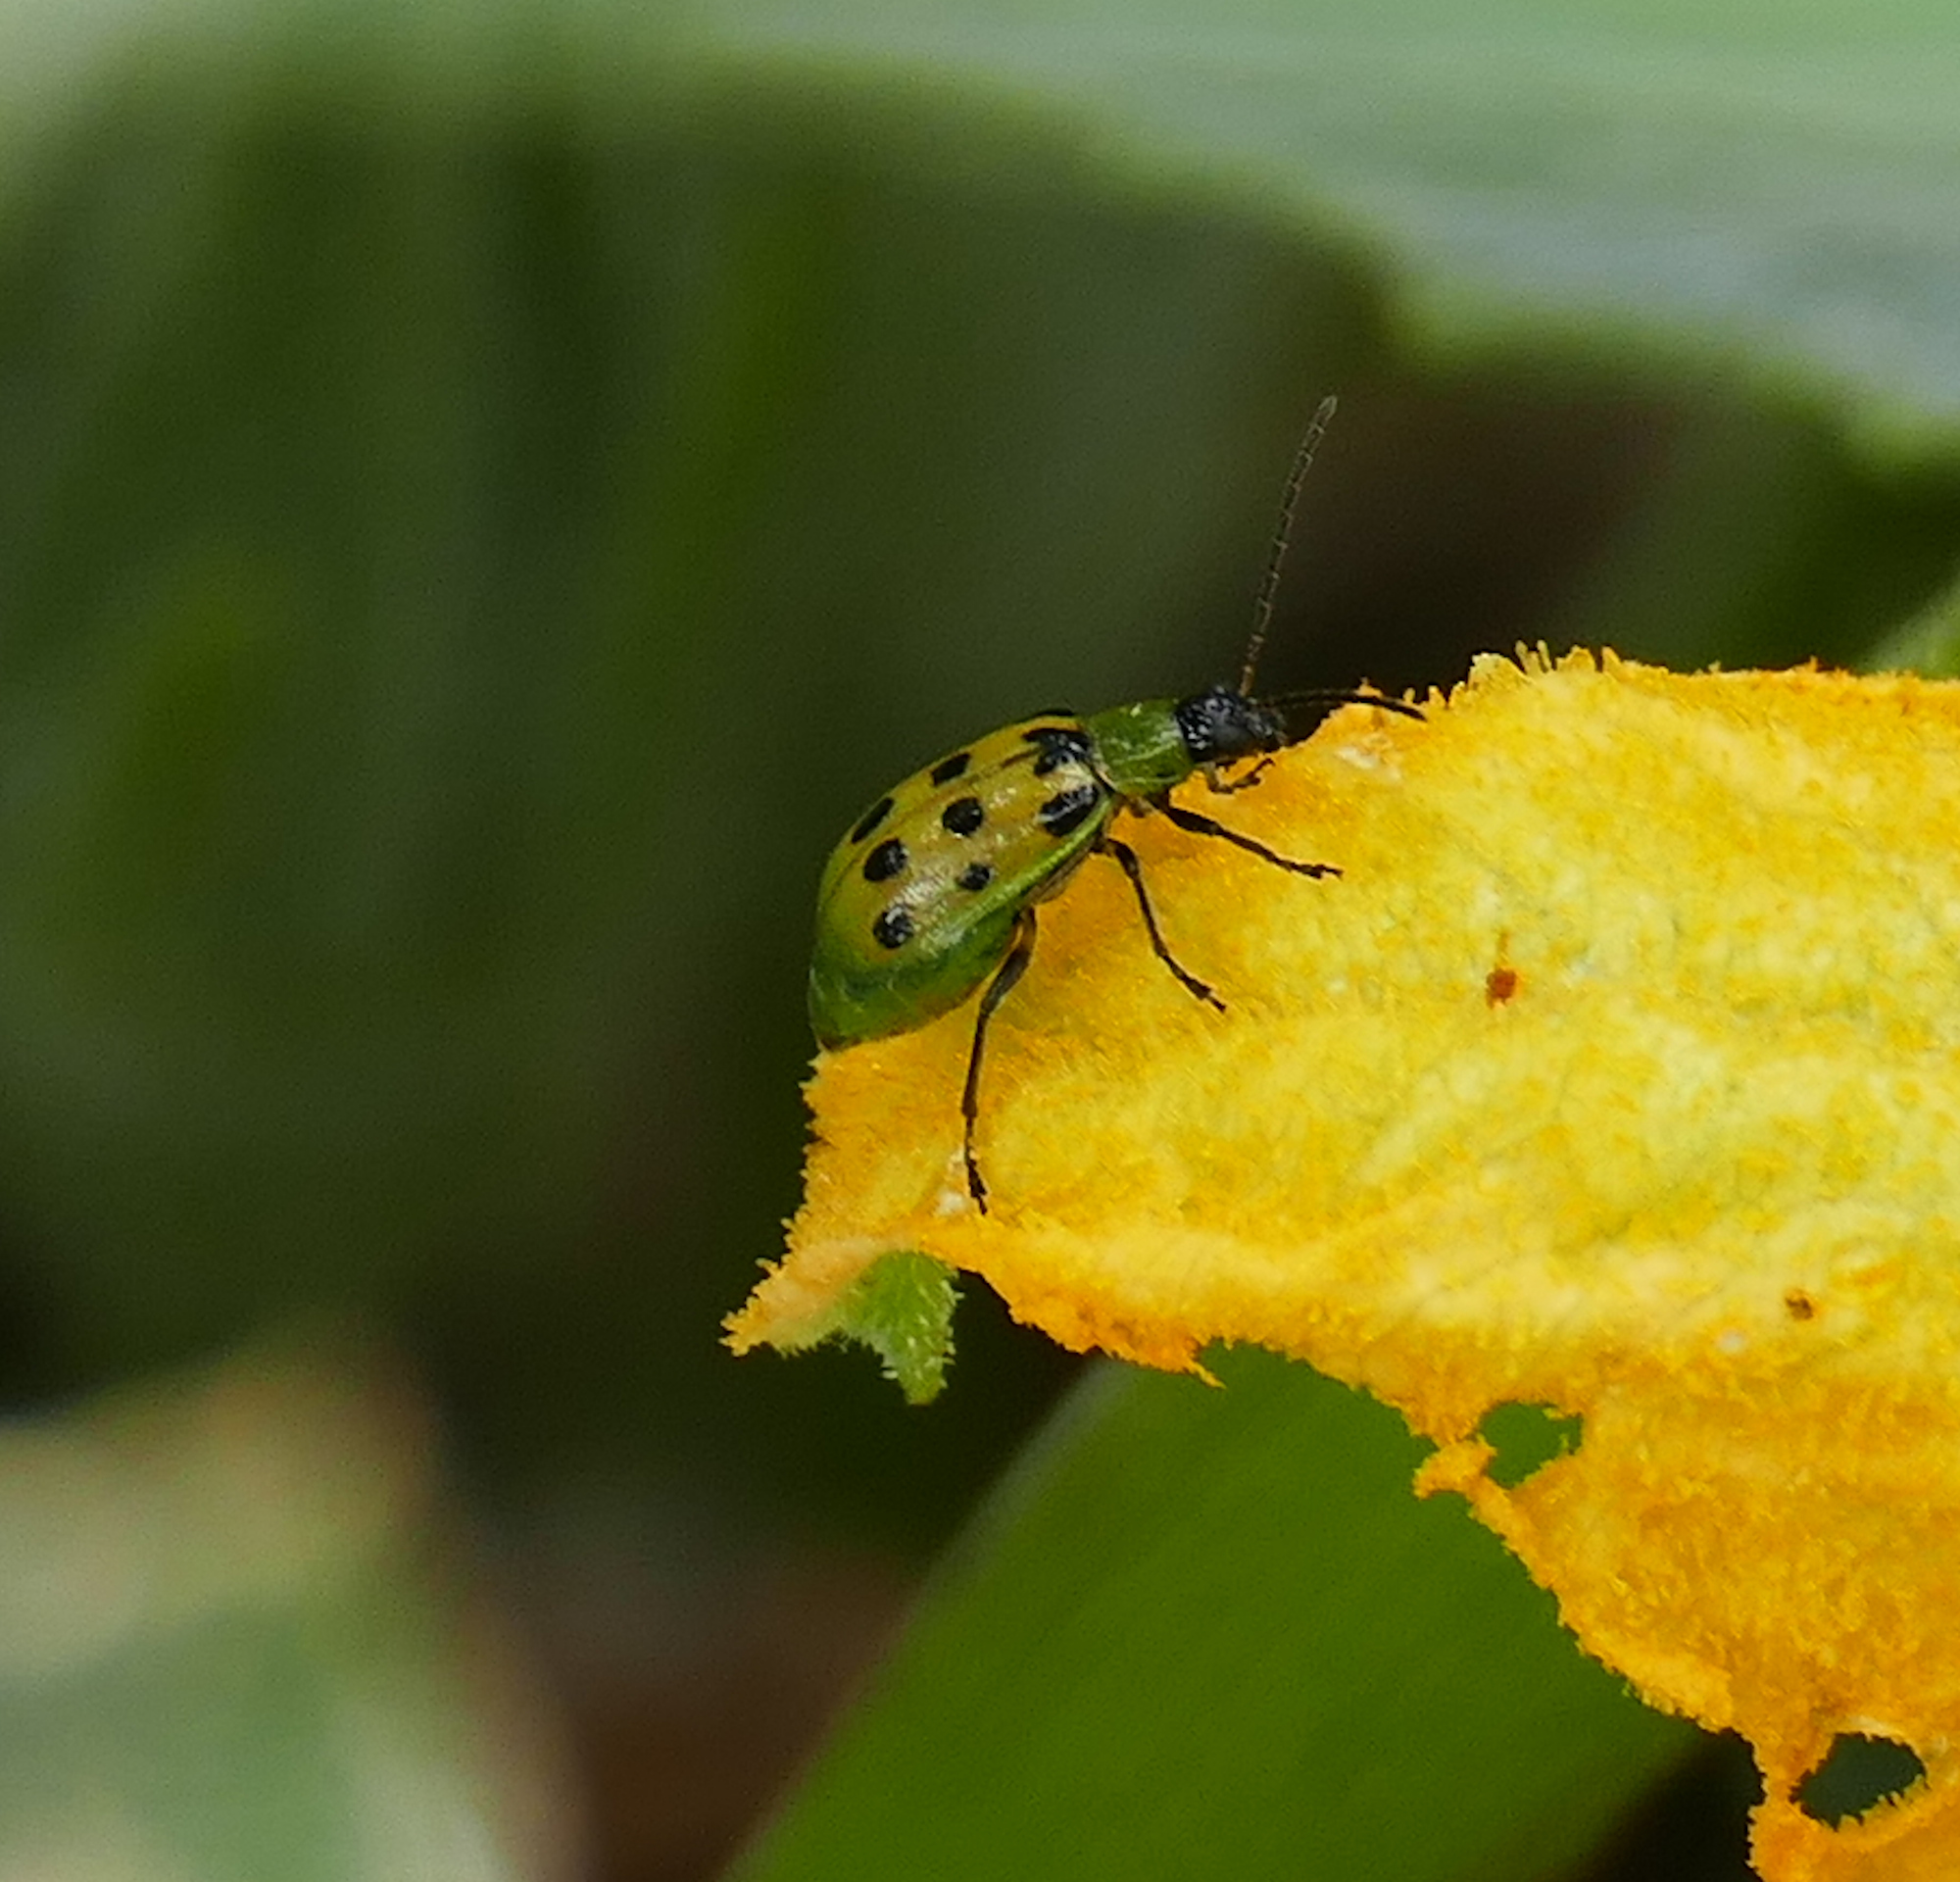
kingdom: Animalia
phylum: Arthropoda
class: Insecta
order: Coleoptera
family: Chrysomelidae
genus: Diabrotica
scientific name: Diabrotica undecimpunctata
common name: Spotted cucumber beetle
